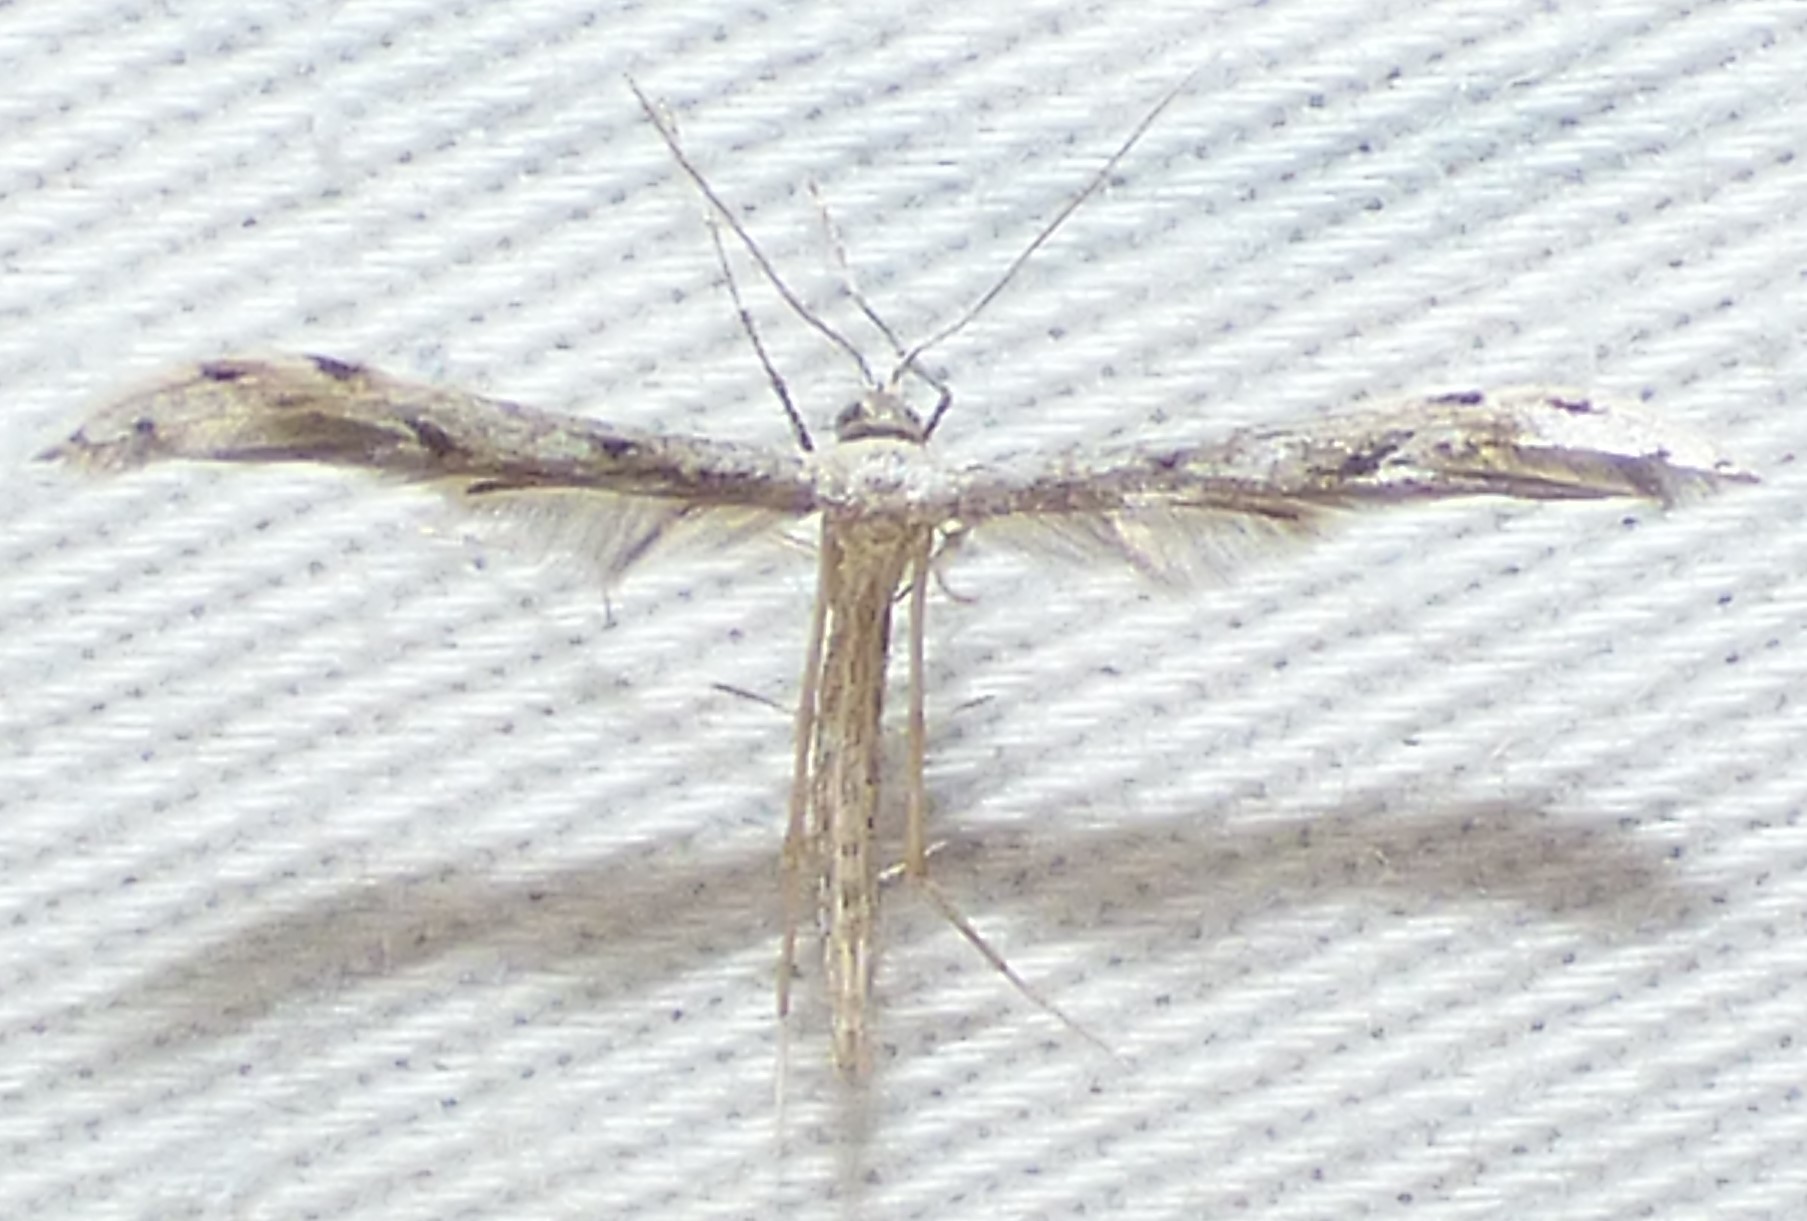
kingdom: Animalia
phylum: Arthropoda
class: Insecta
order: Lepidoptera
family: Pterophoridae
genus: Pselnophorus
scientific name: Pselnophorus belfragei
